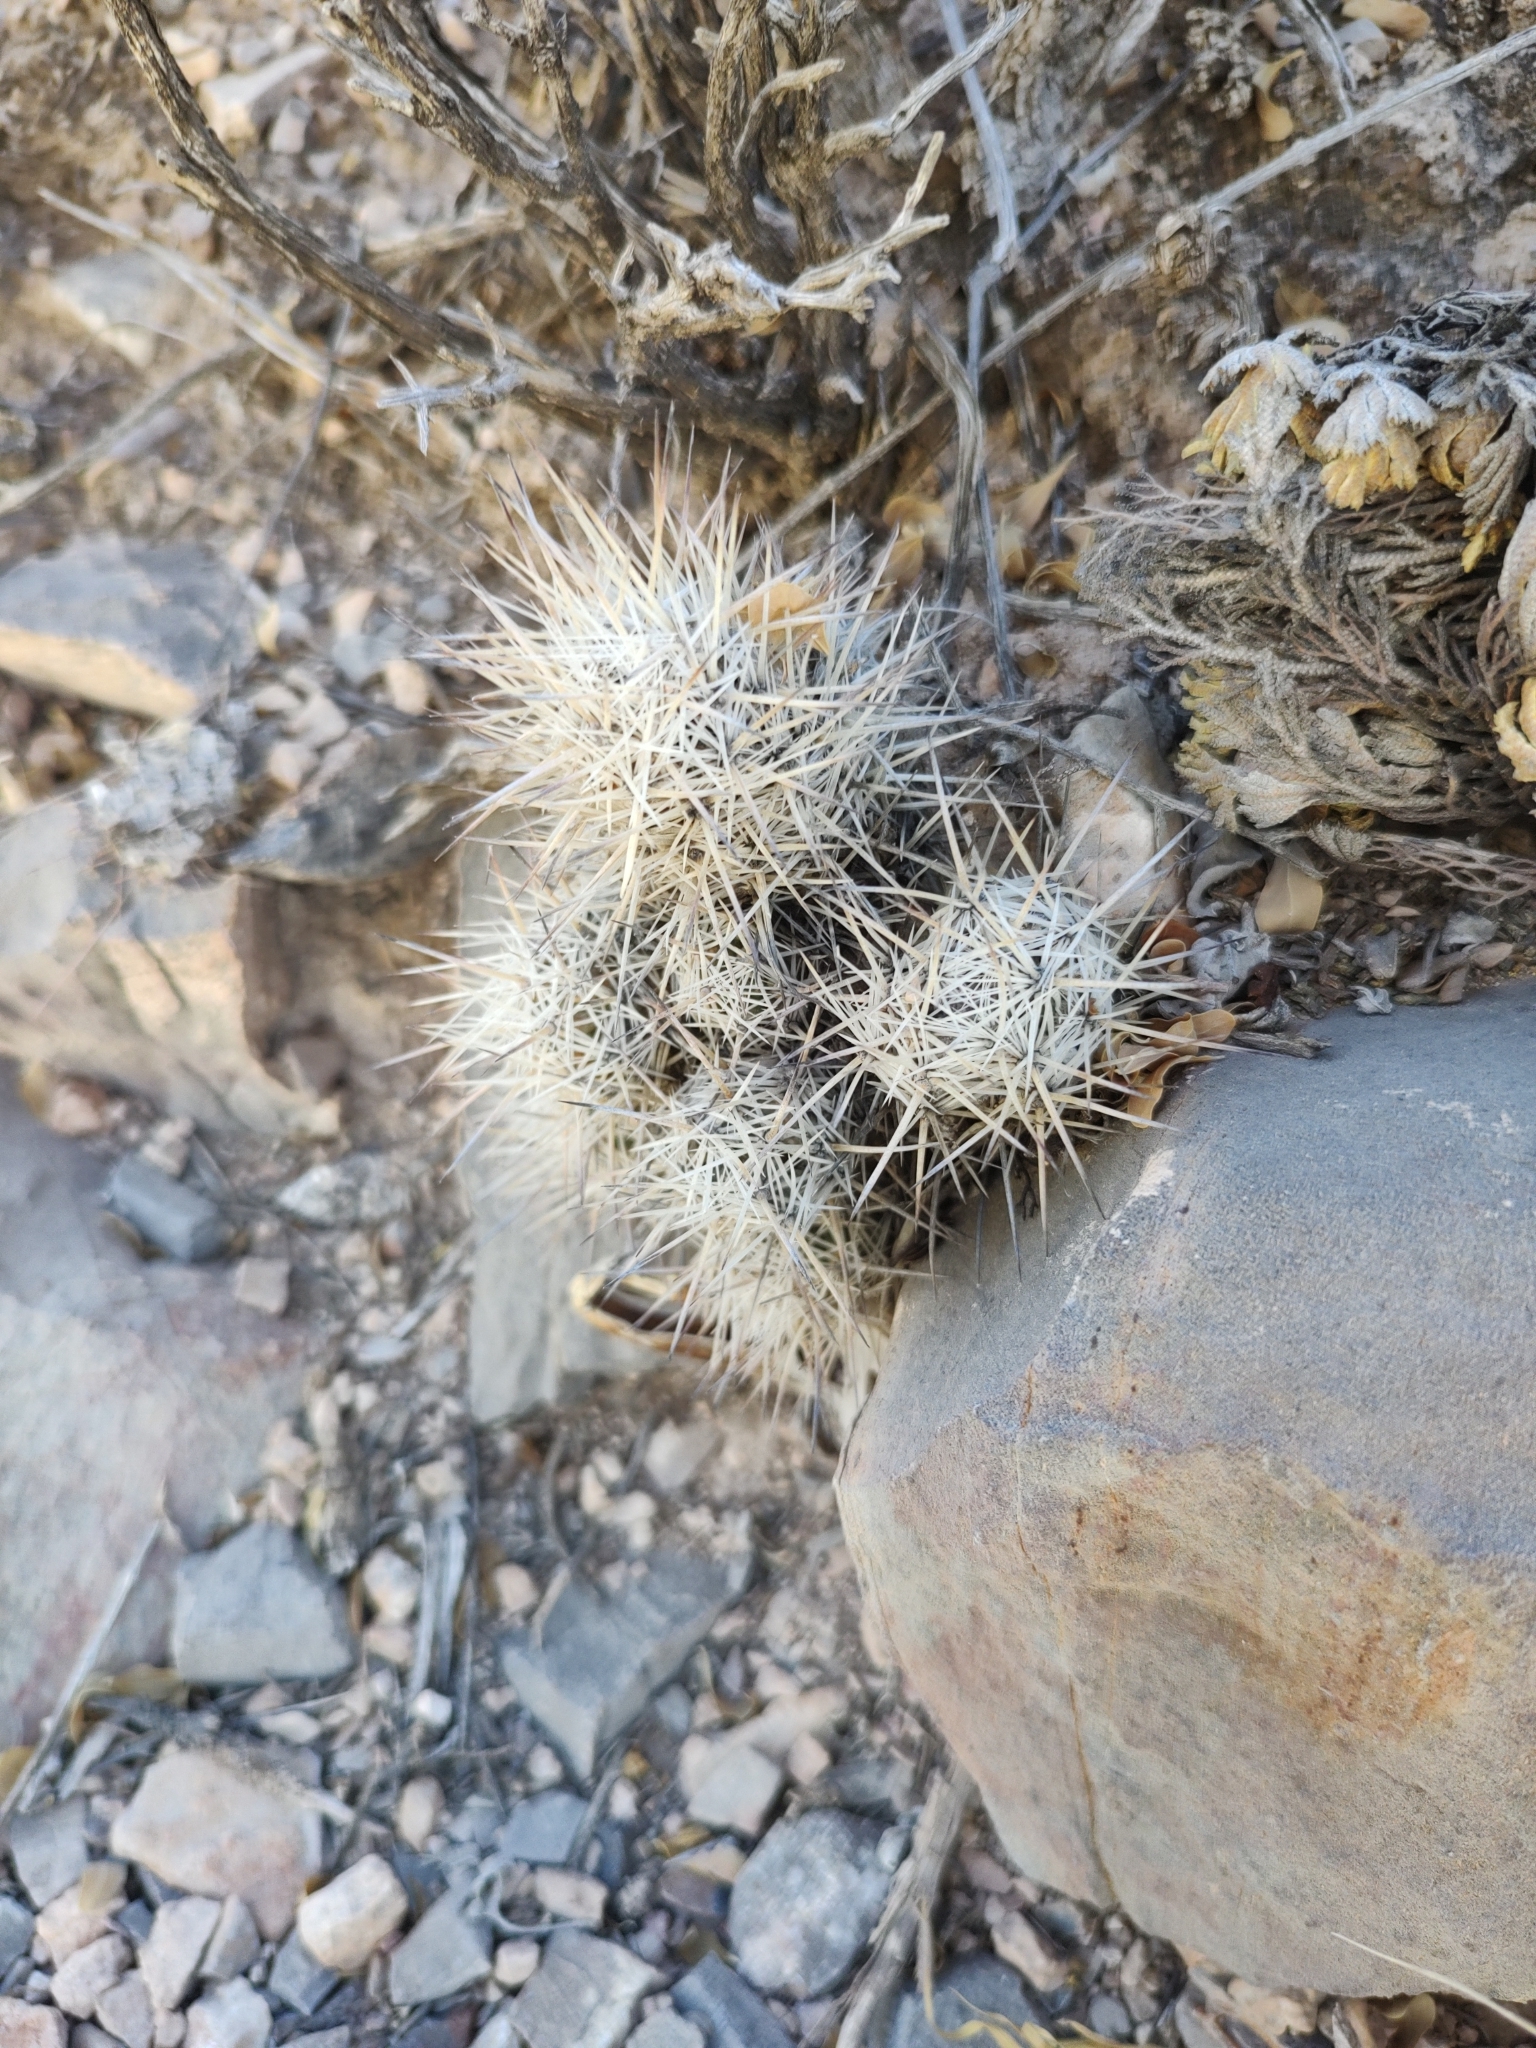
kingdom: Plantae
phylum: Tracheophyta
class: Magnoliopsida
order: Caryophyllales
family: Cactaceae
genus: Pelecyphora
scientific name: Pelecyphora lloydii
